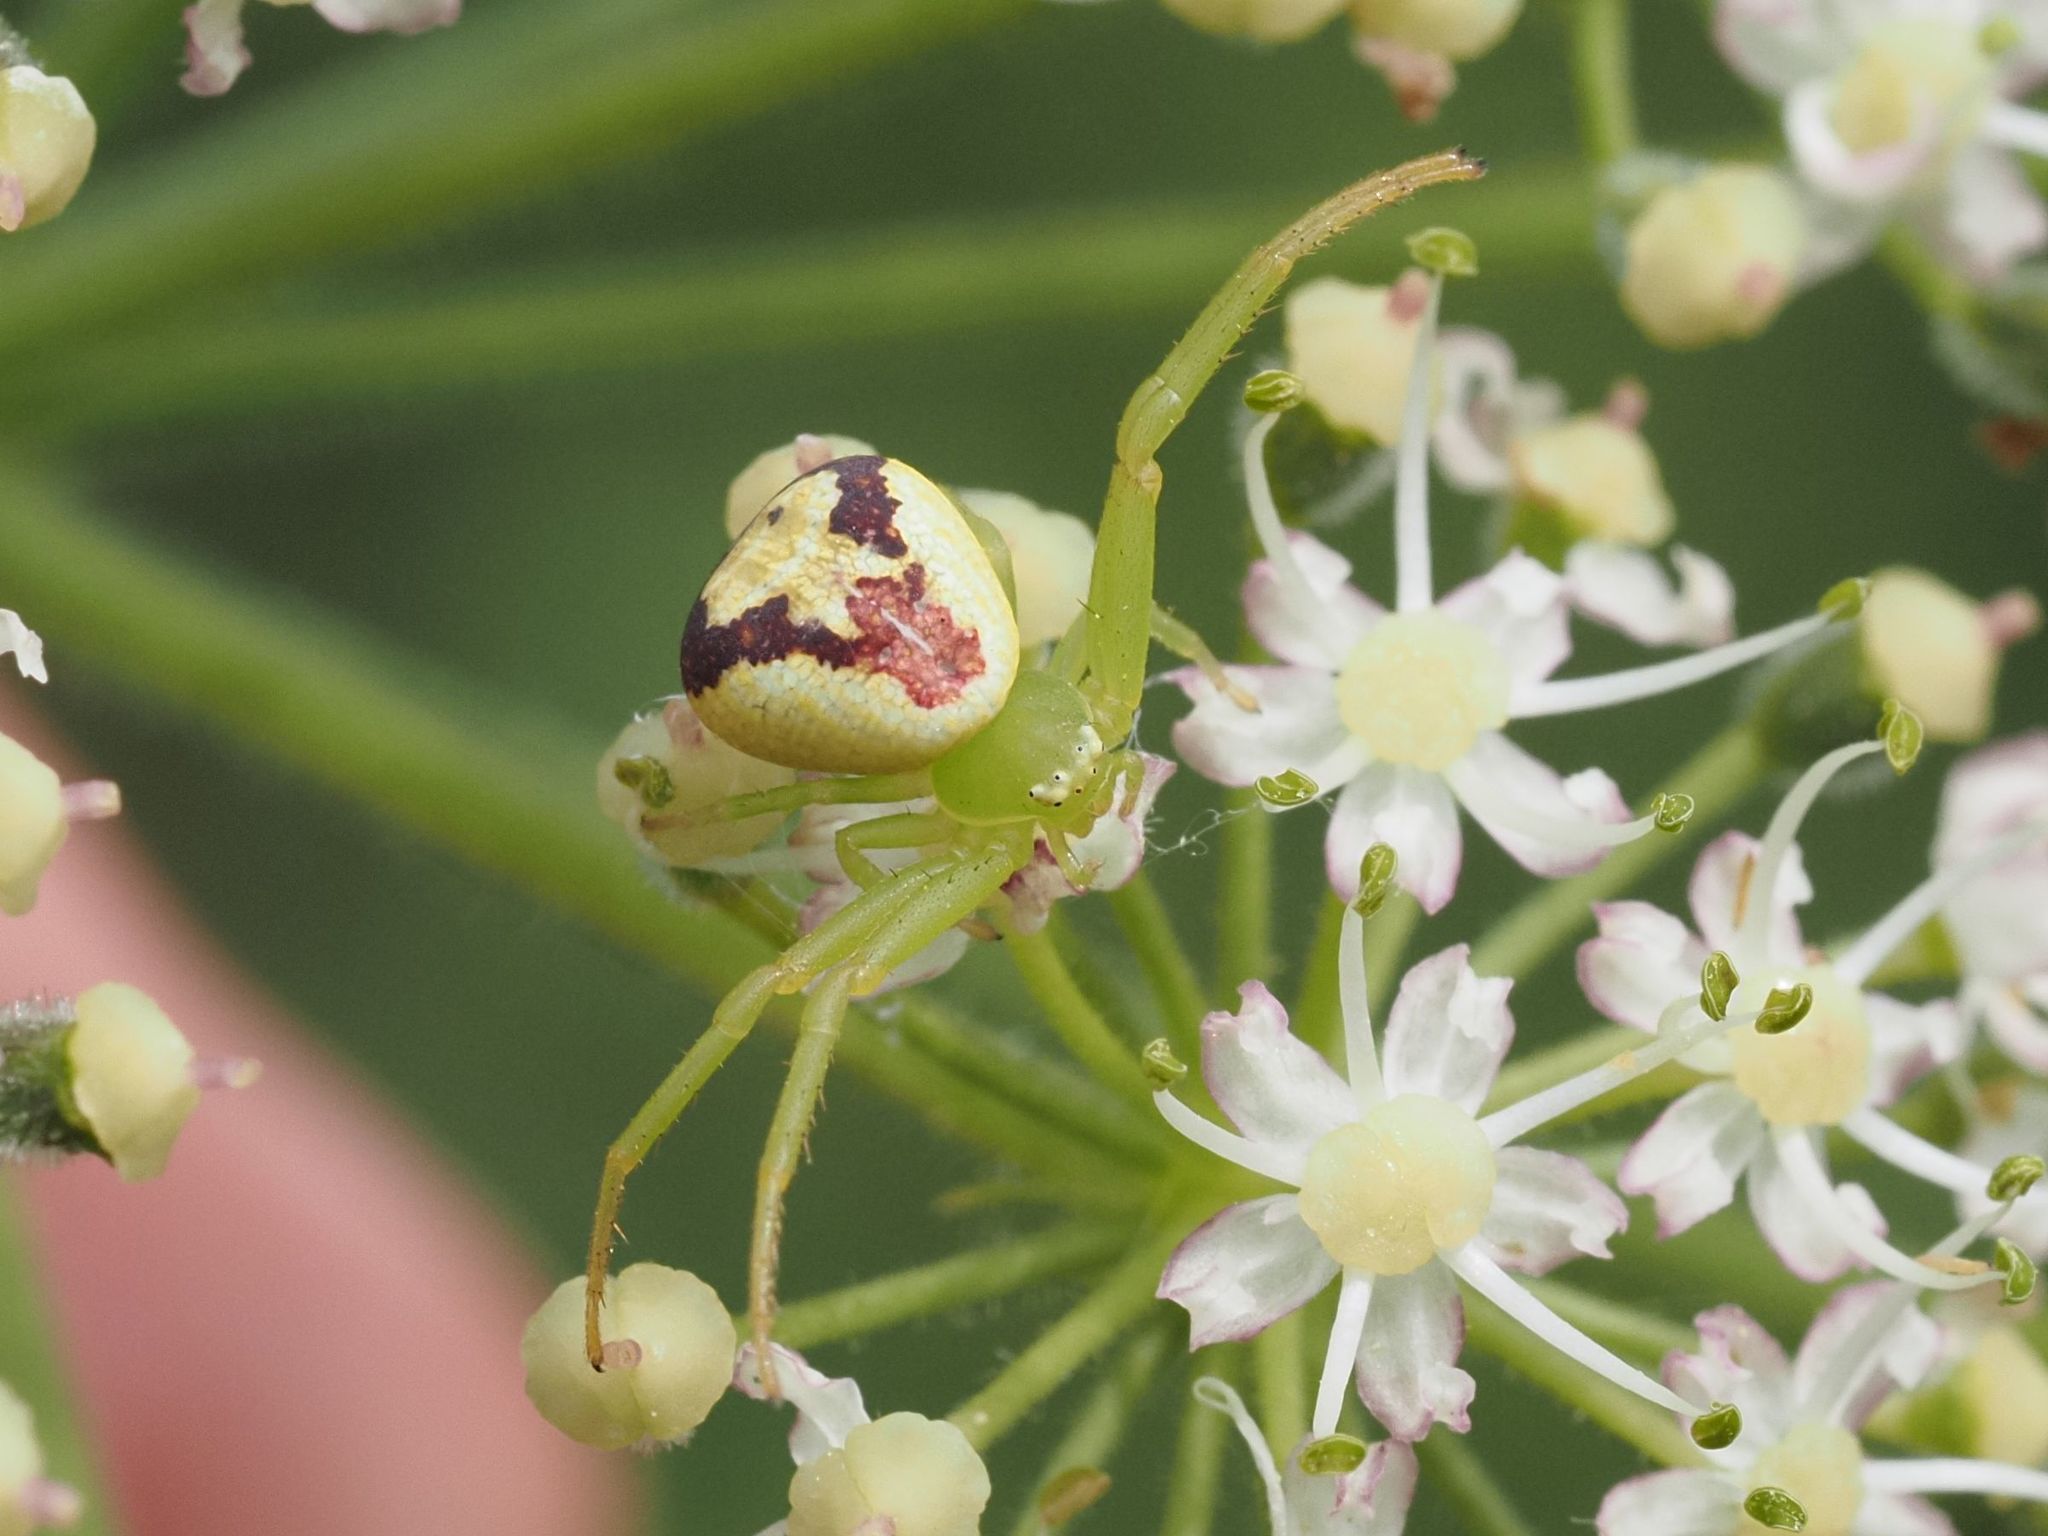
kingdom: Animalia
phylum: Arthropoda
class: Arachnida
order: Araneae
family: Thomisidae
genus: Ebrechtella
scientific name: Ebrechtella tricuspidata
